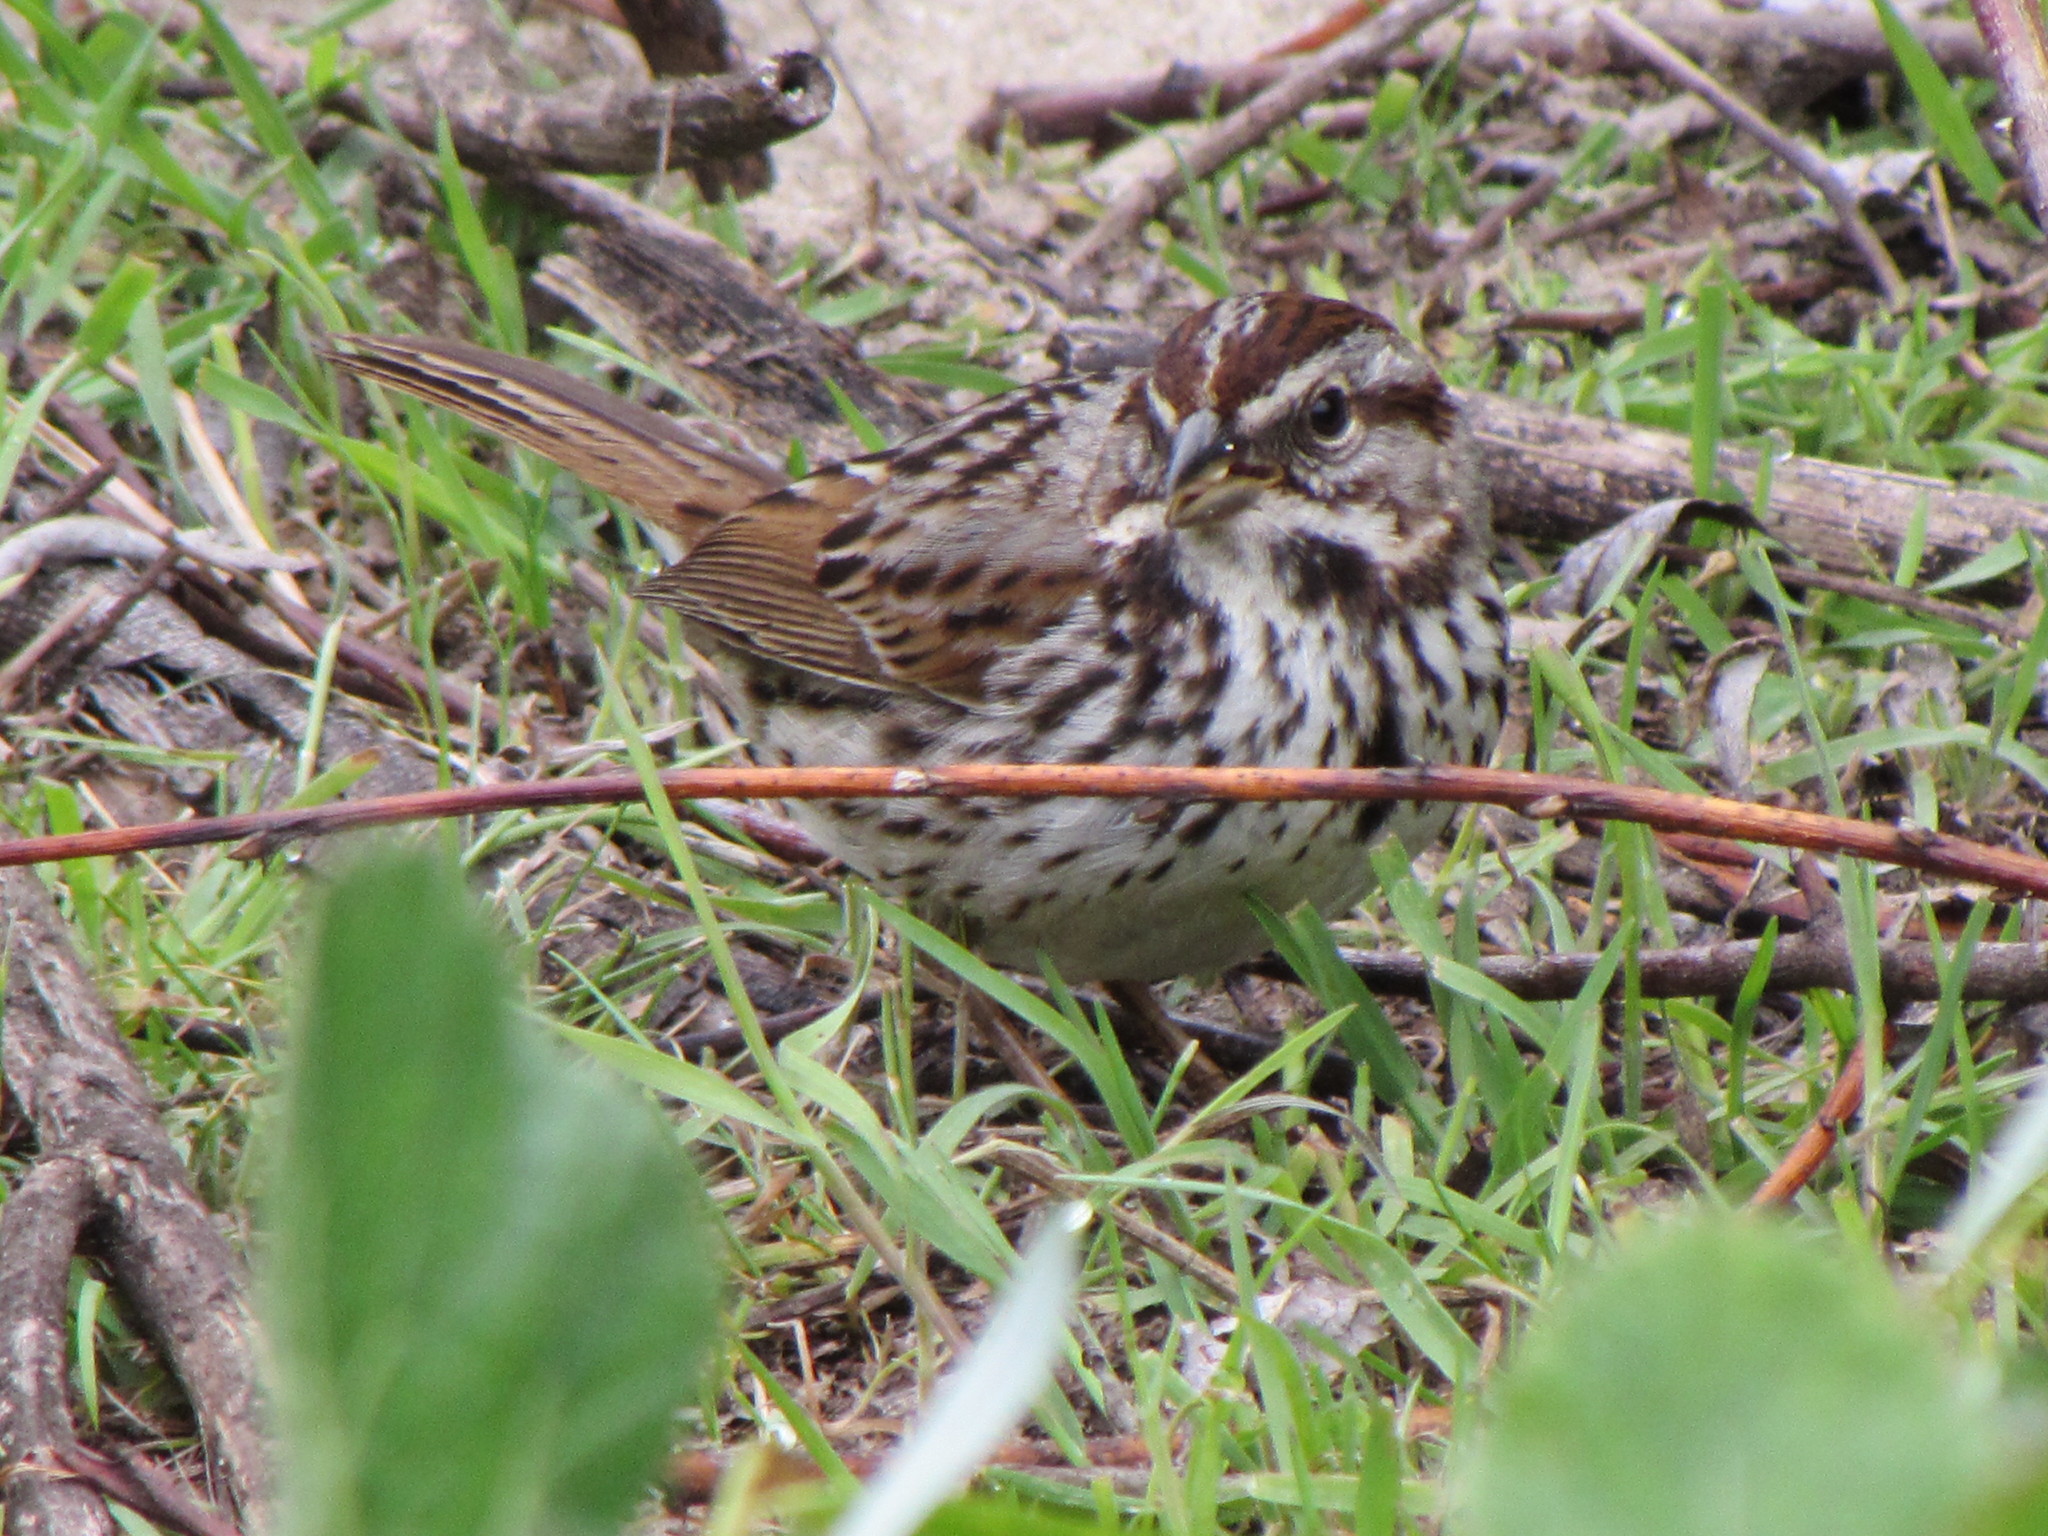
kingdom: Animalia
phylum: Chordata
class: Aves
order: Passeriformes
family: Passerellidae
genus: Melospiza
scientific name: Melospiza melodia
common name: Song sparrow
